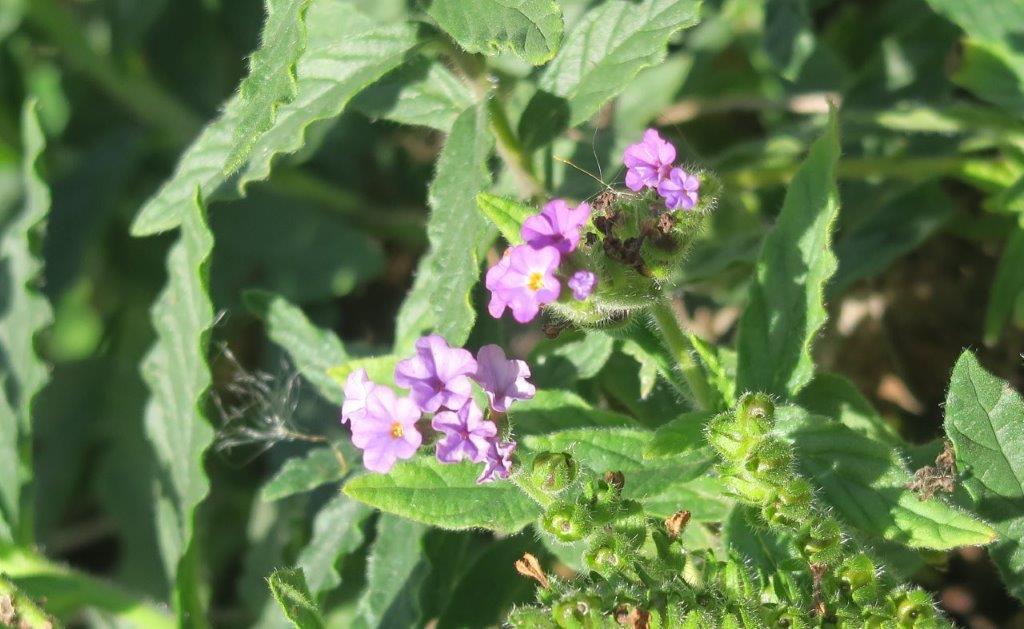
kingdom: Plantae
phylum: Tracheophyta
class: Magnoliopsida
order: Boraginales
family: Heliotropiaceae
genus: Heliotropium
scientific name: Heliotropium amplexicaule
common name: Clasping heliotrope
